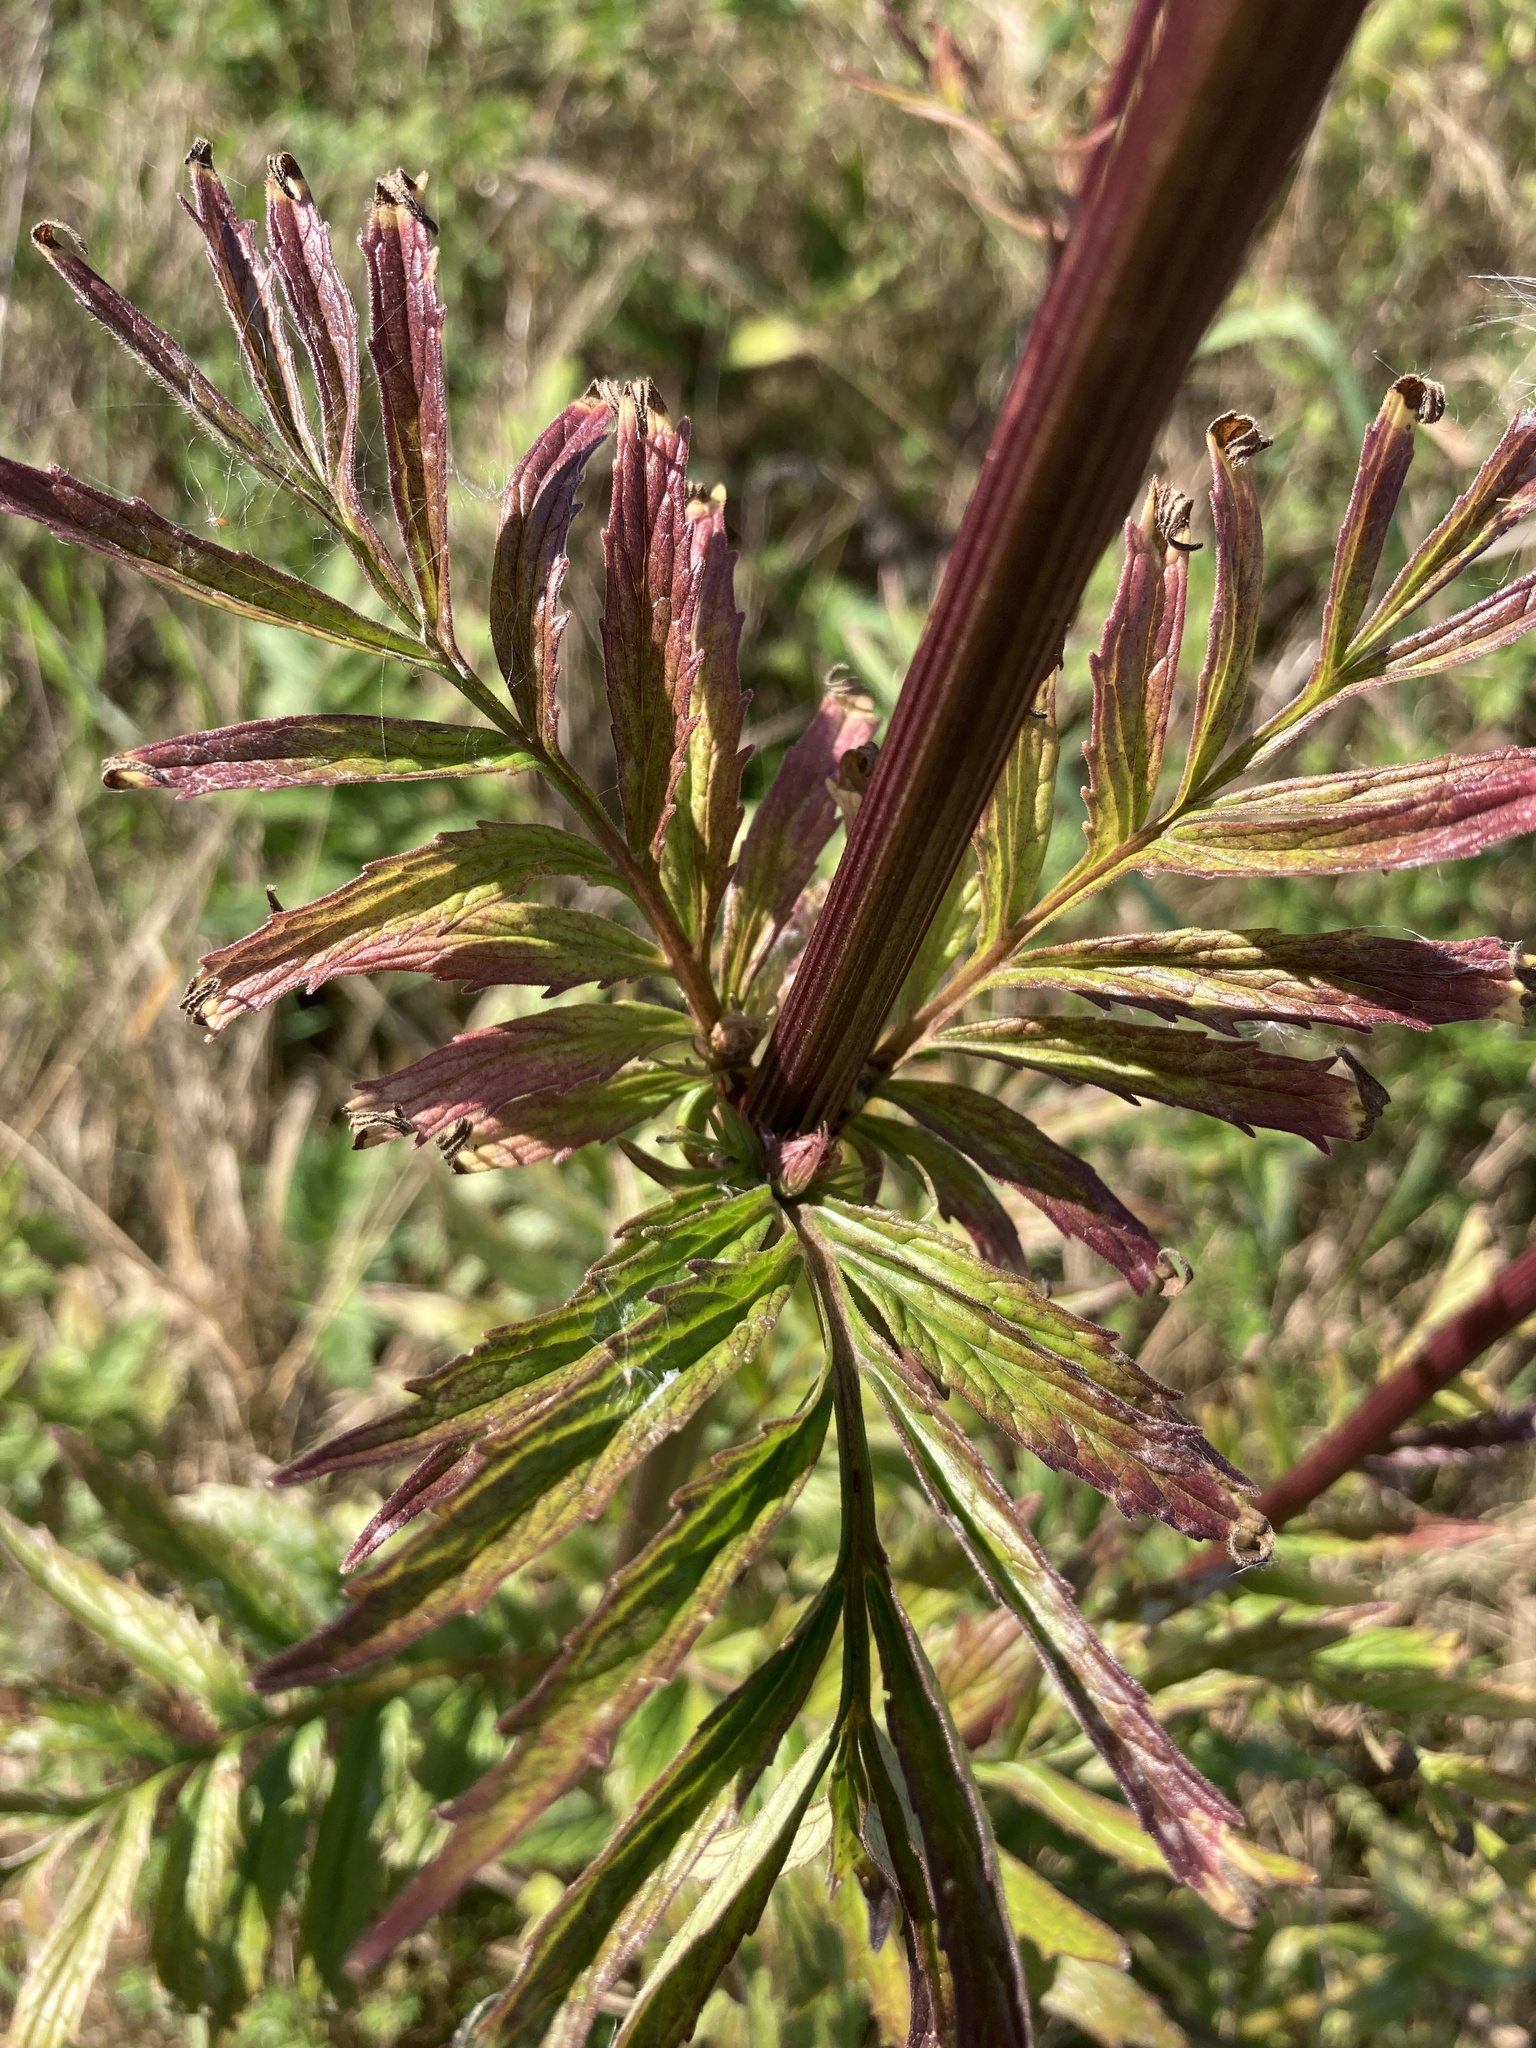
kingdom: Plantae
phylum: Tracheophyta
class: Magnoliopsida
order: Dipsacales
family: Caprifoliaceae
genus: Valeriana
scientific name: Valeriana officinalis
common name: Common valerian
